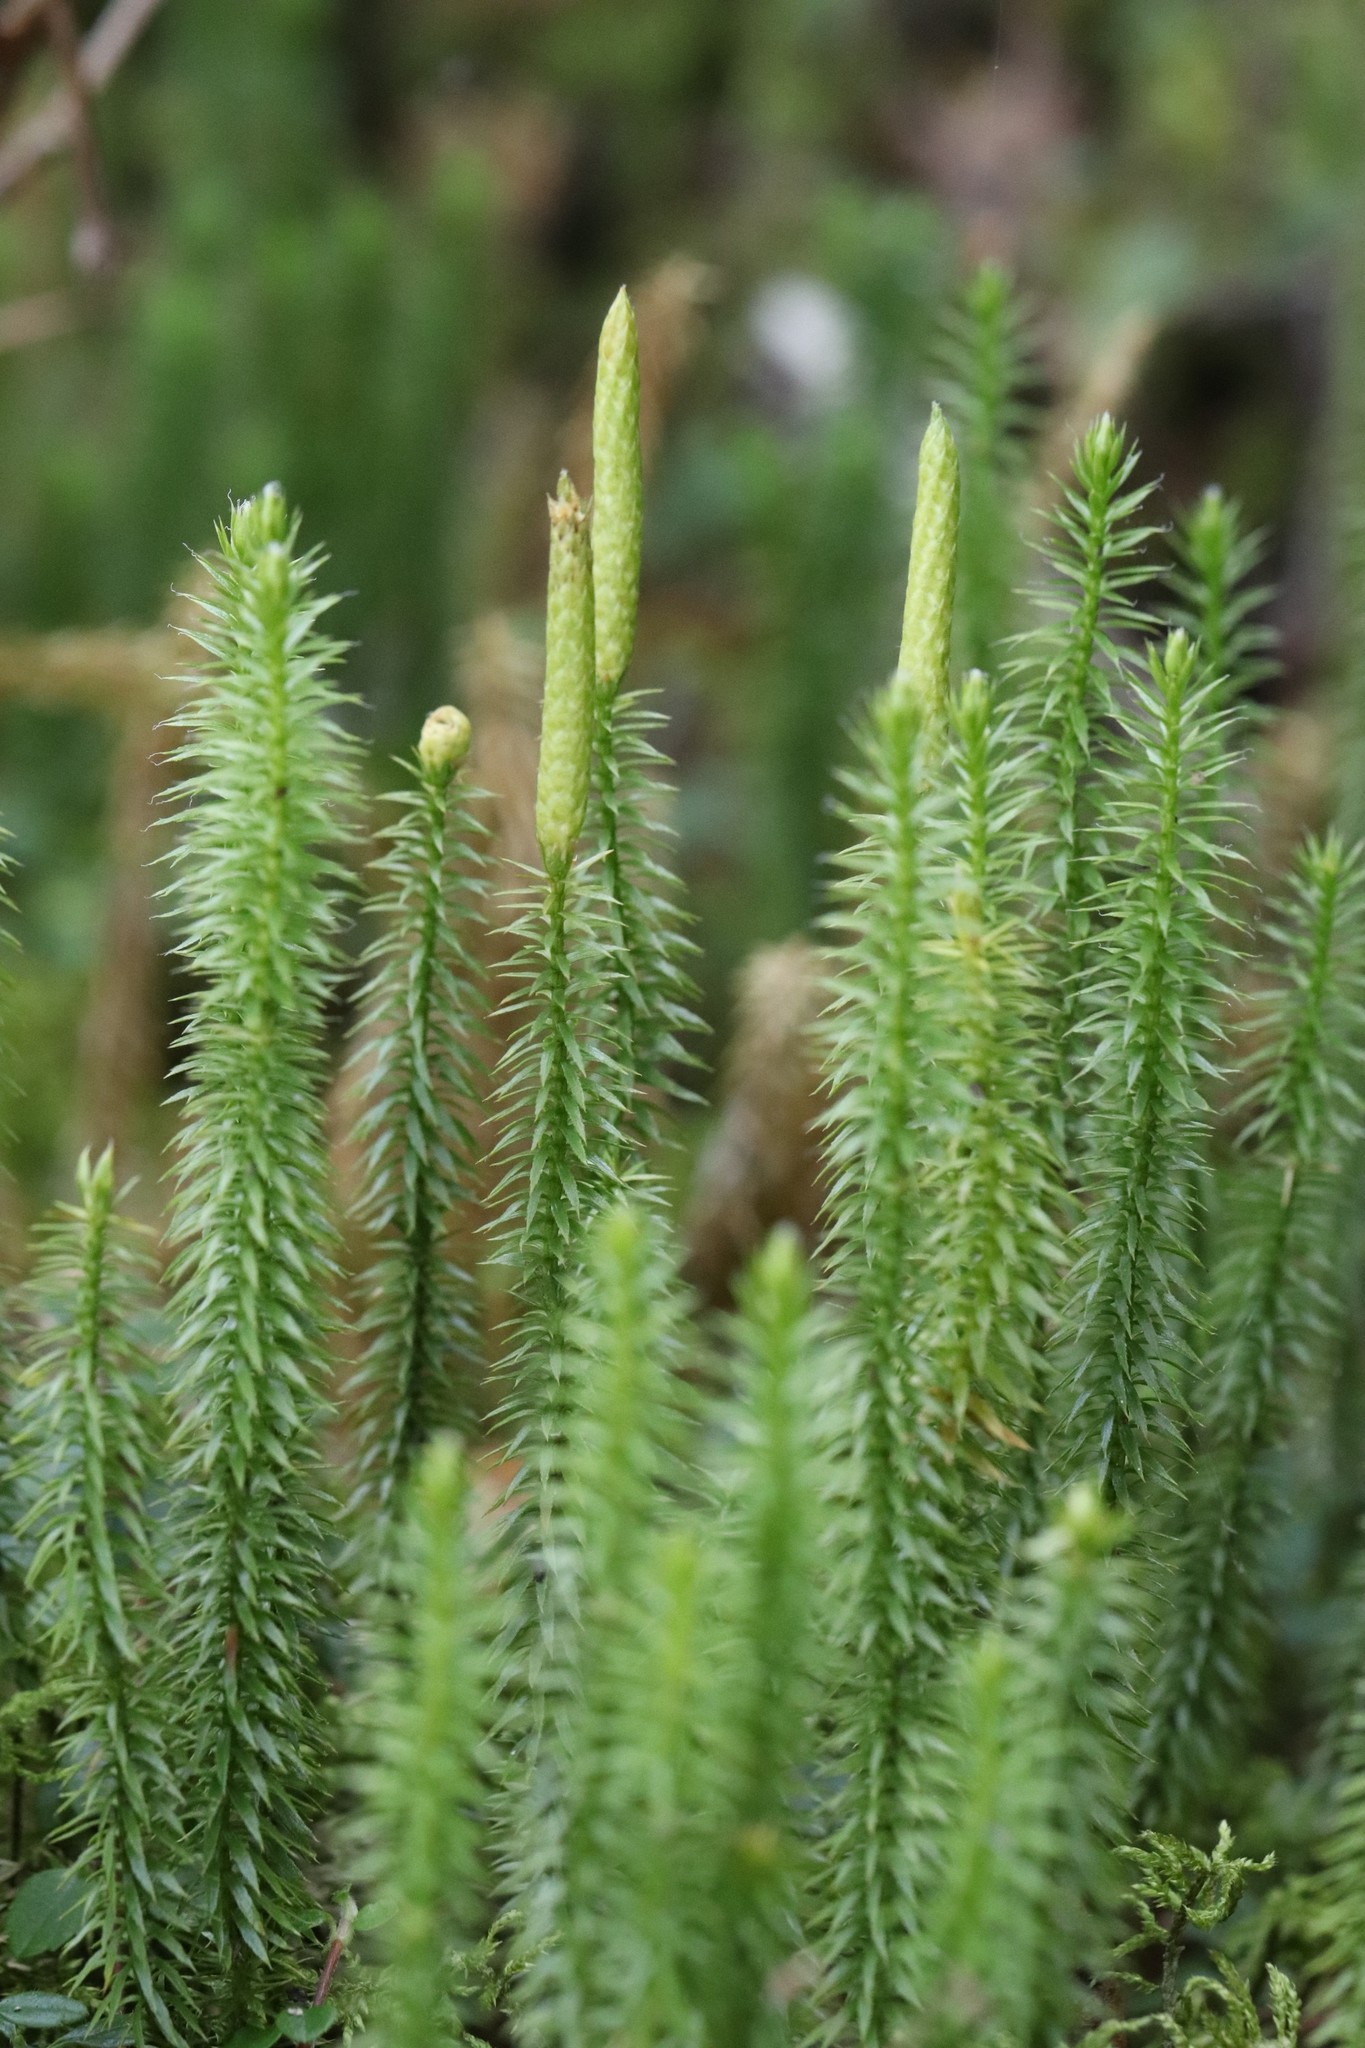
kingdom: Plantae
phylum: Tracheophyta
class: Lycopodiopsida
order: Lycopodiales
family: Lycopodiaceae
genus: Spinulum
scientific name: Spinulum annotinum
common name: Interrupted club-moss
